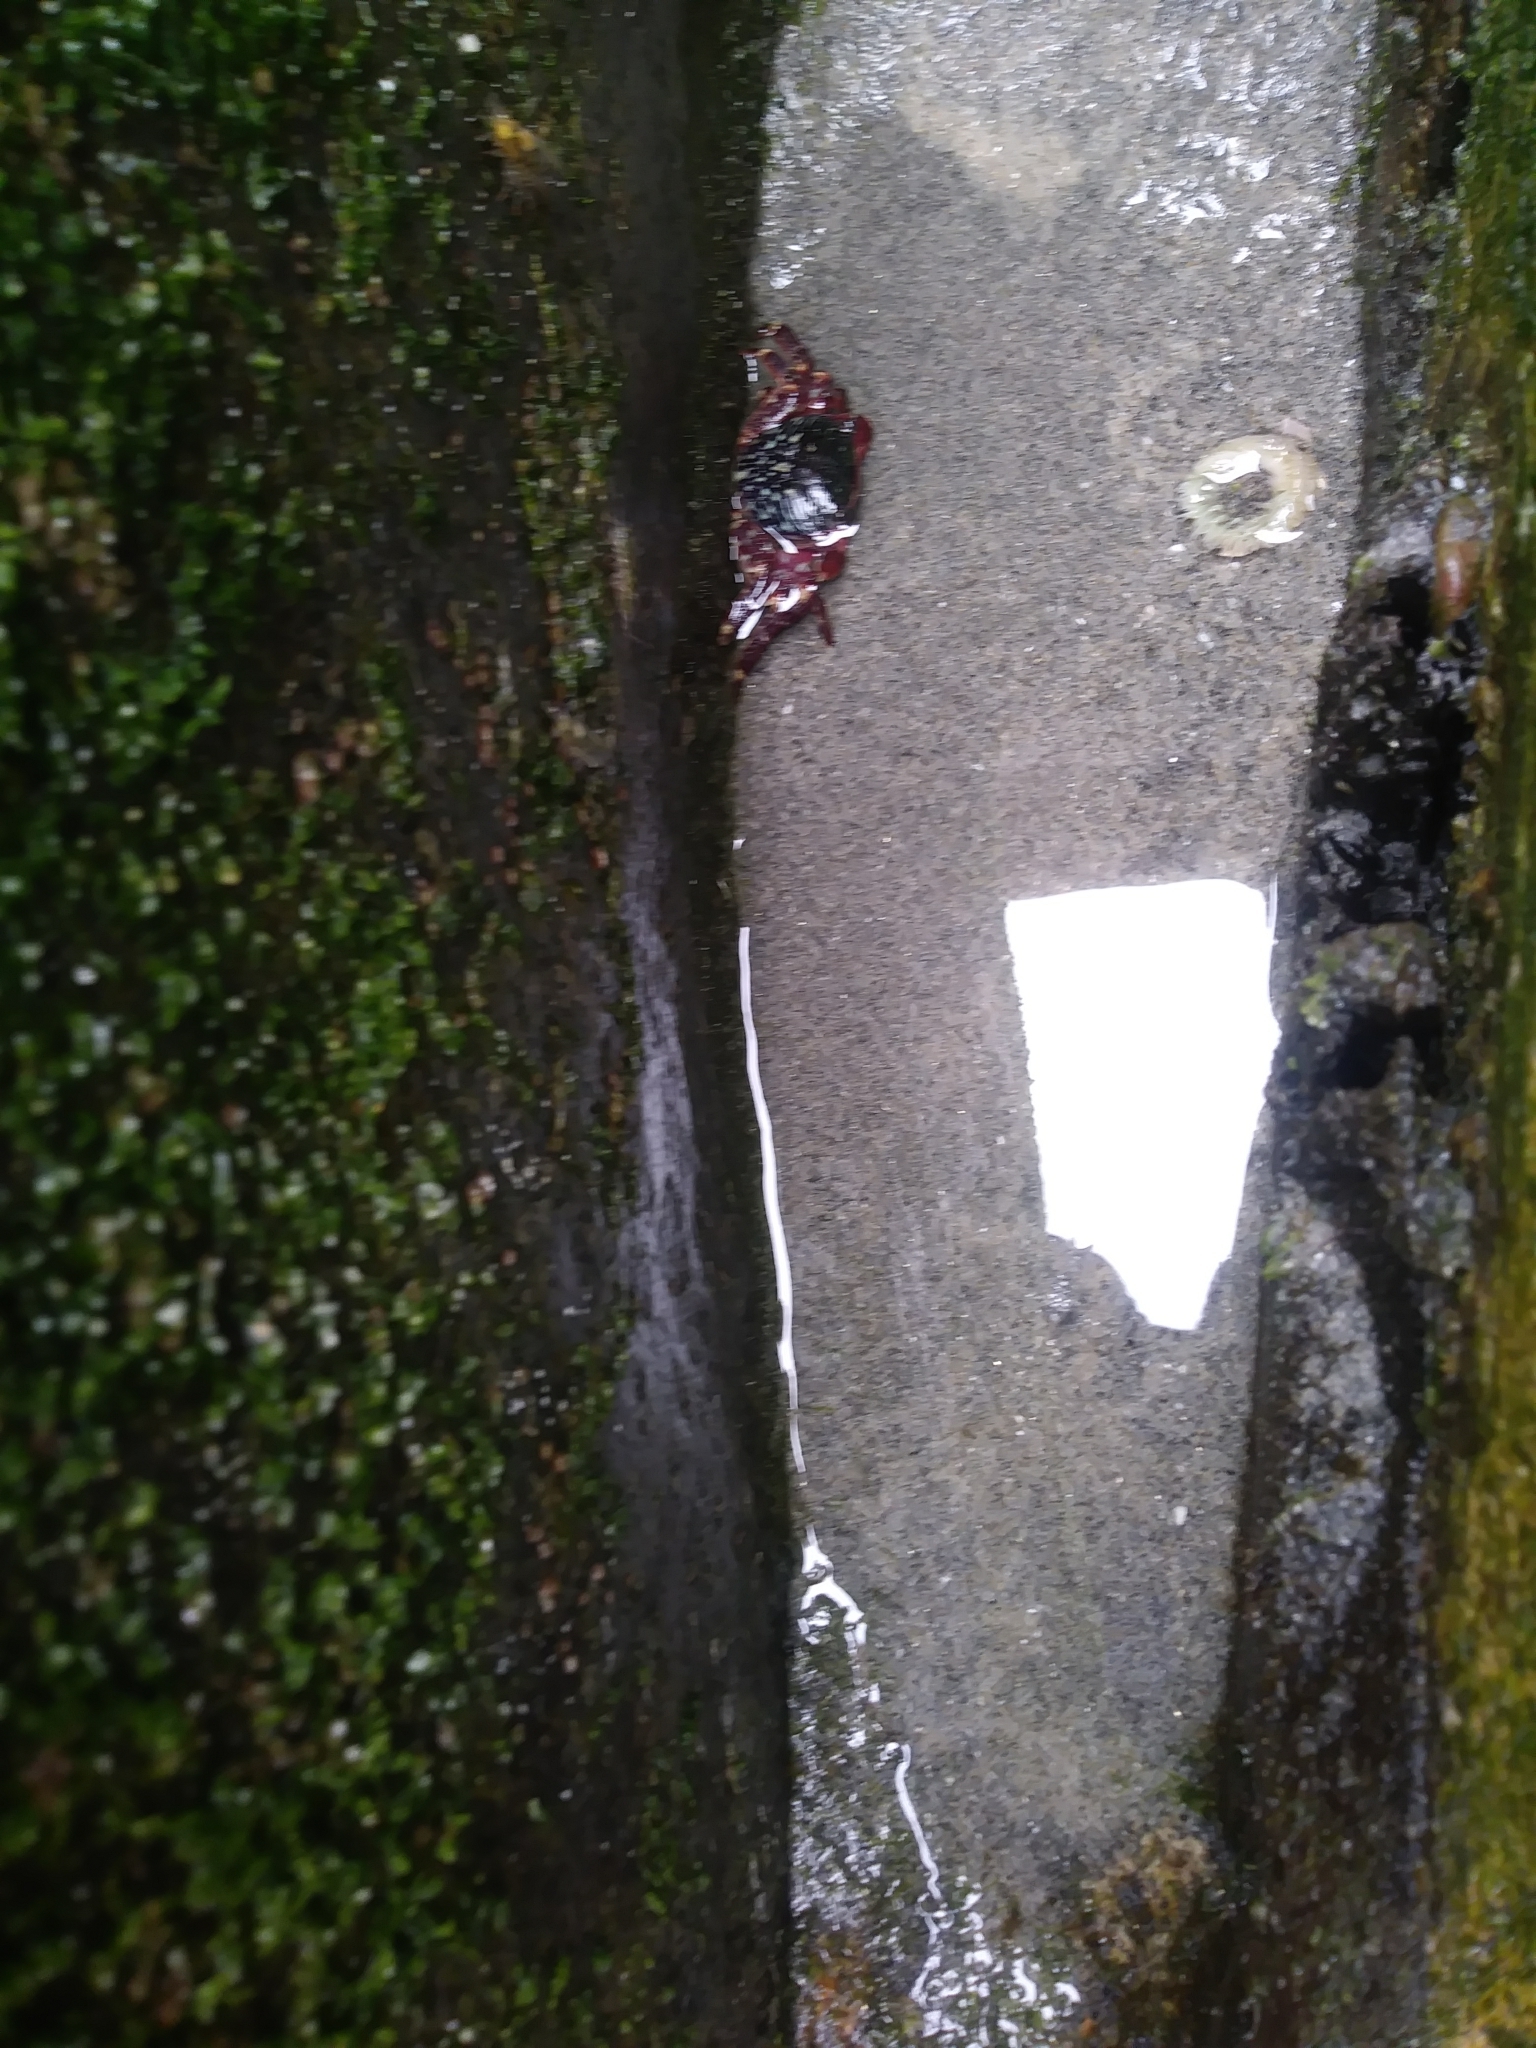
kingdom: Animalia
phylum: Arthropoda
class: Malacostraca
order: Decapoda
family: Grapsidae
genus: Pachygrapsus
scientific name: Pachygrapsus crassipes
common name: Striped shore crab
